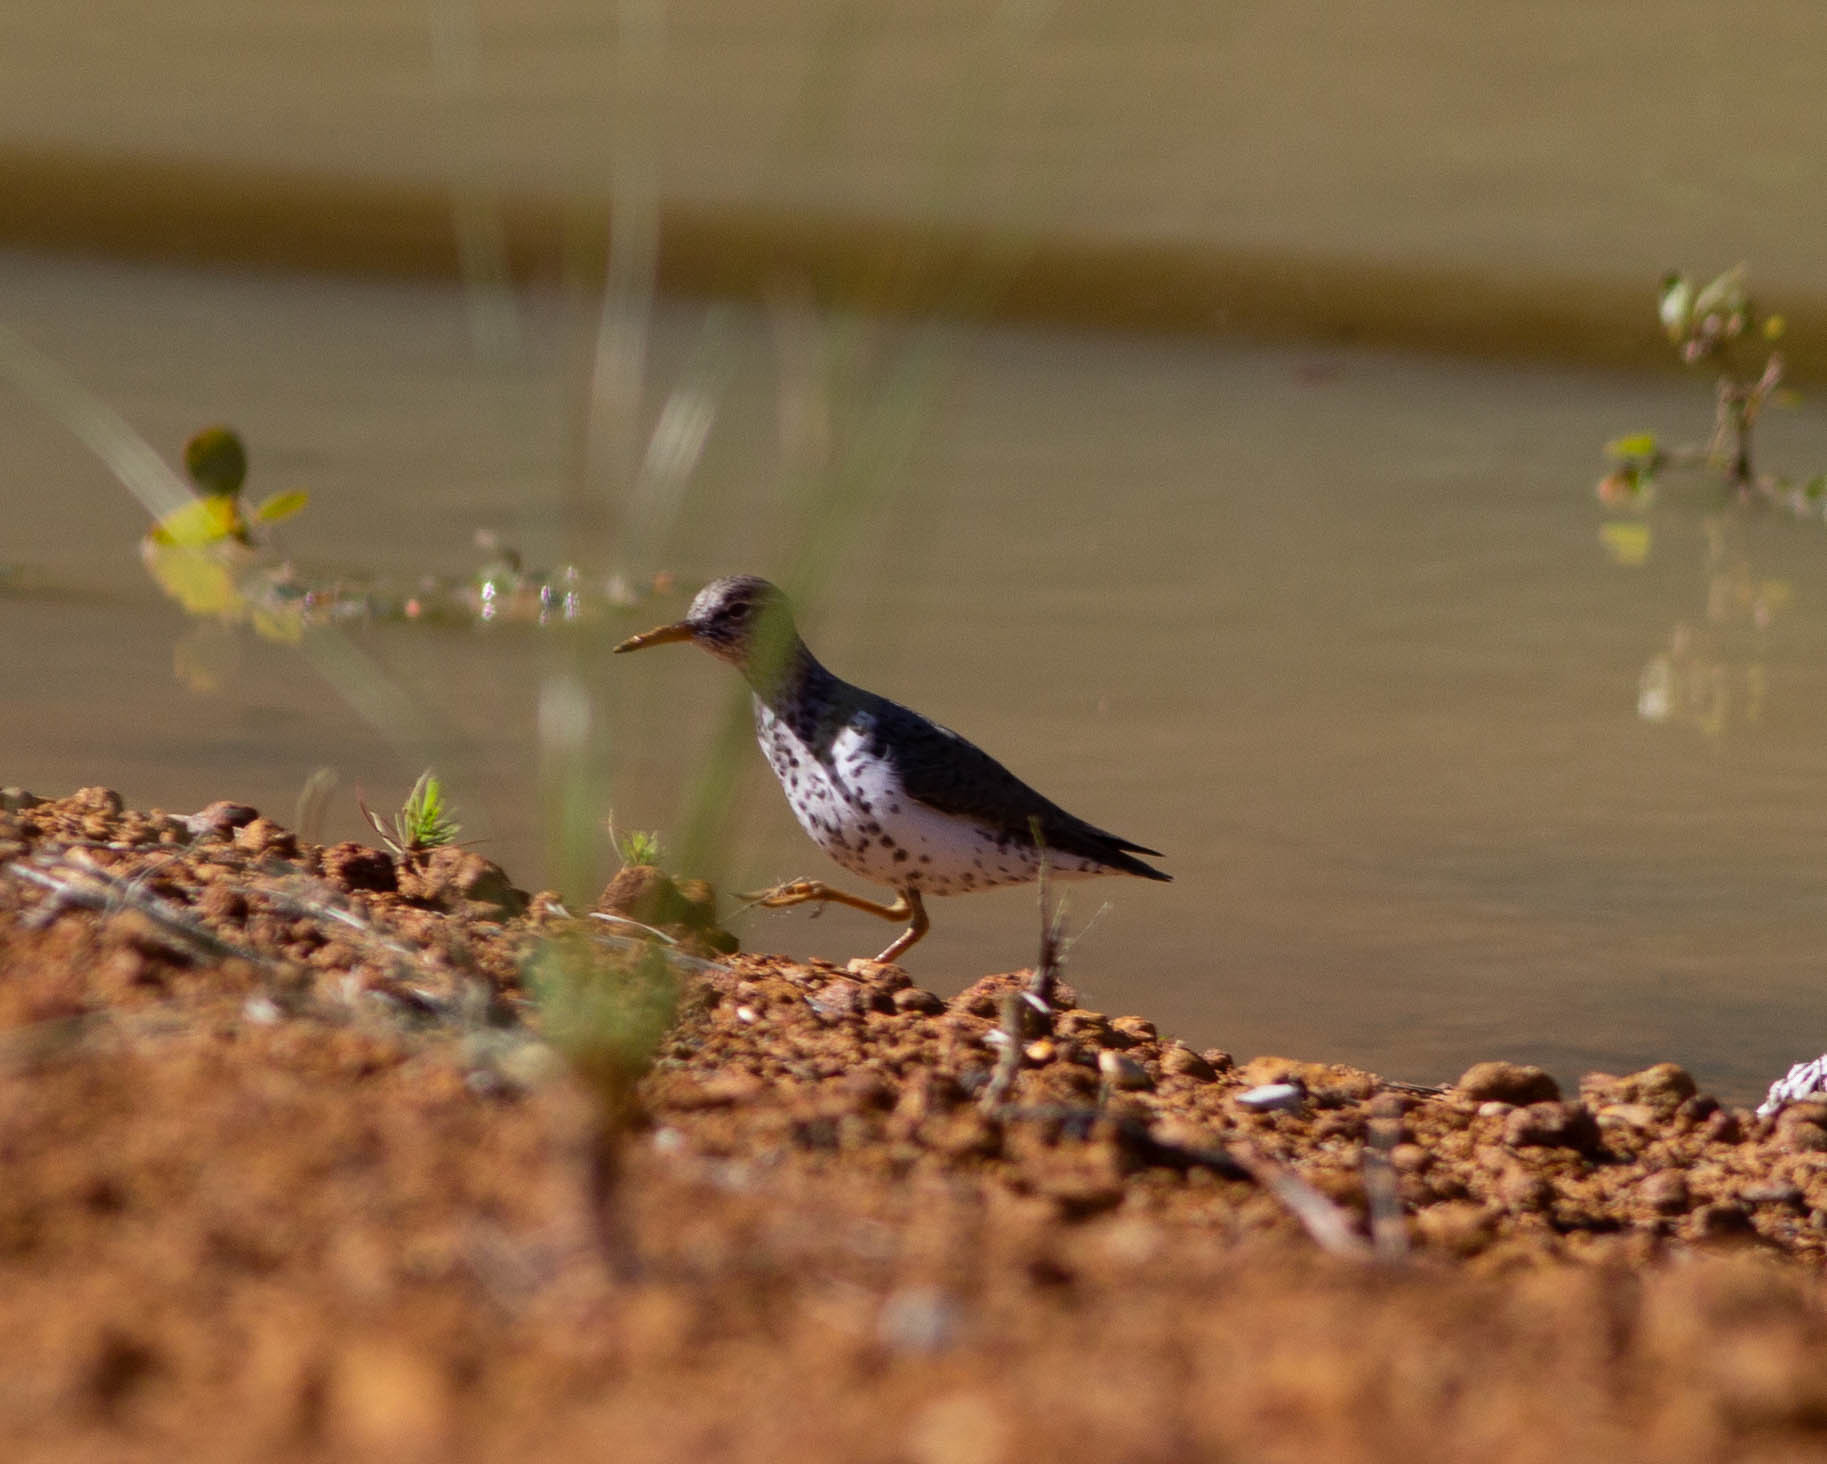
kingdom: Animalia
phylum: Chordata
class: Aves
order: Charadriiformes
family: Scolopacidae
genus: Actitis
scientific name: Actitis macularius
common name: Spotted sandpiper
